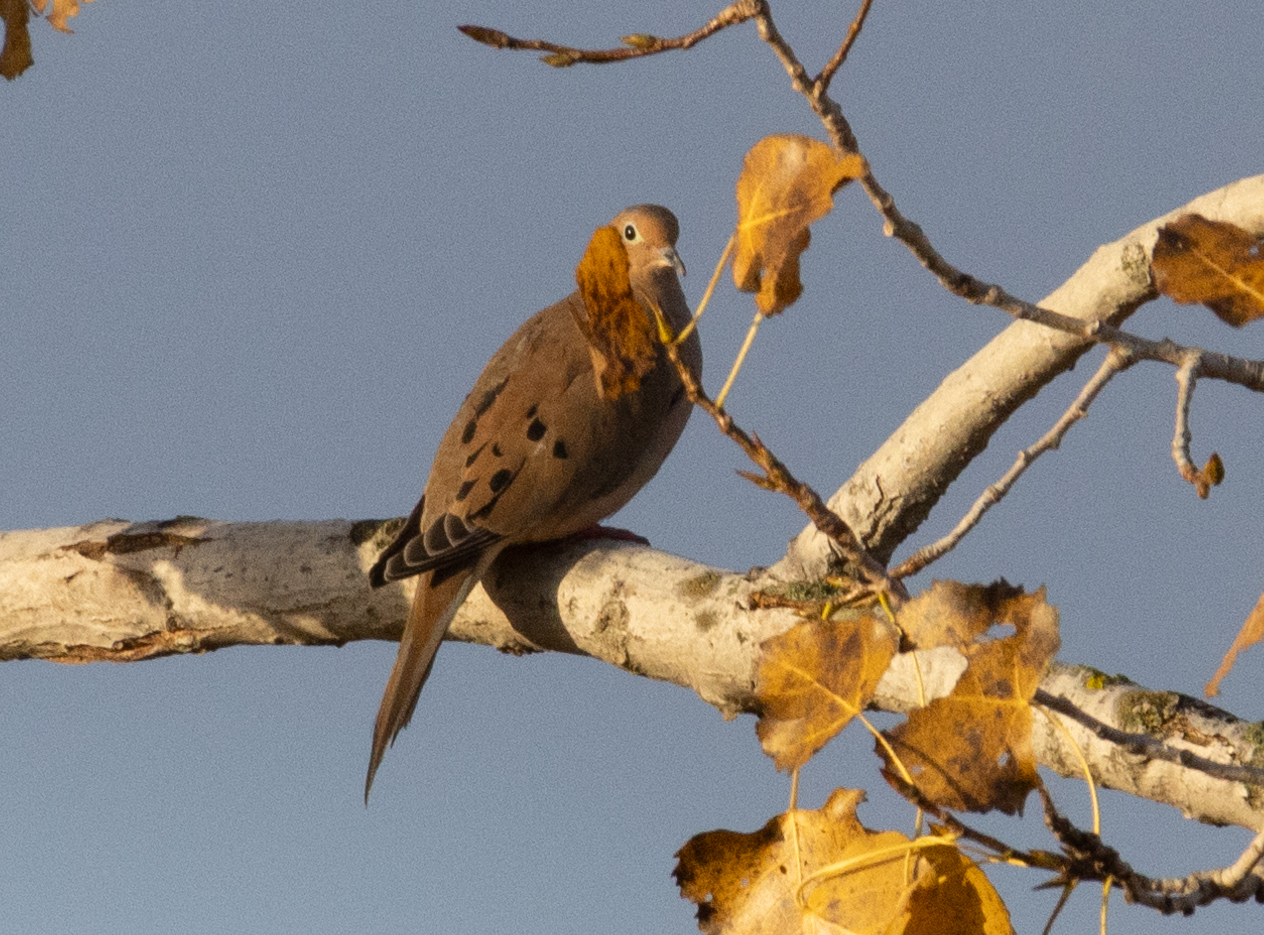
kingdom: Animalia
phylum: Chordata
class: Aves
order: Columbiformes
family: Columbidae
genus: Zenaida
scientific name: Zenaida macroura
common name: Mourning dove
